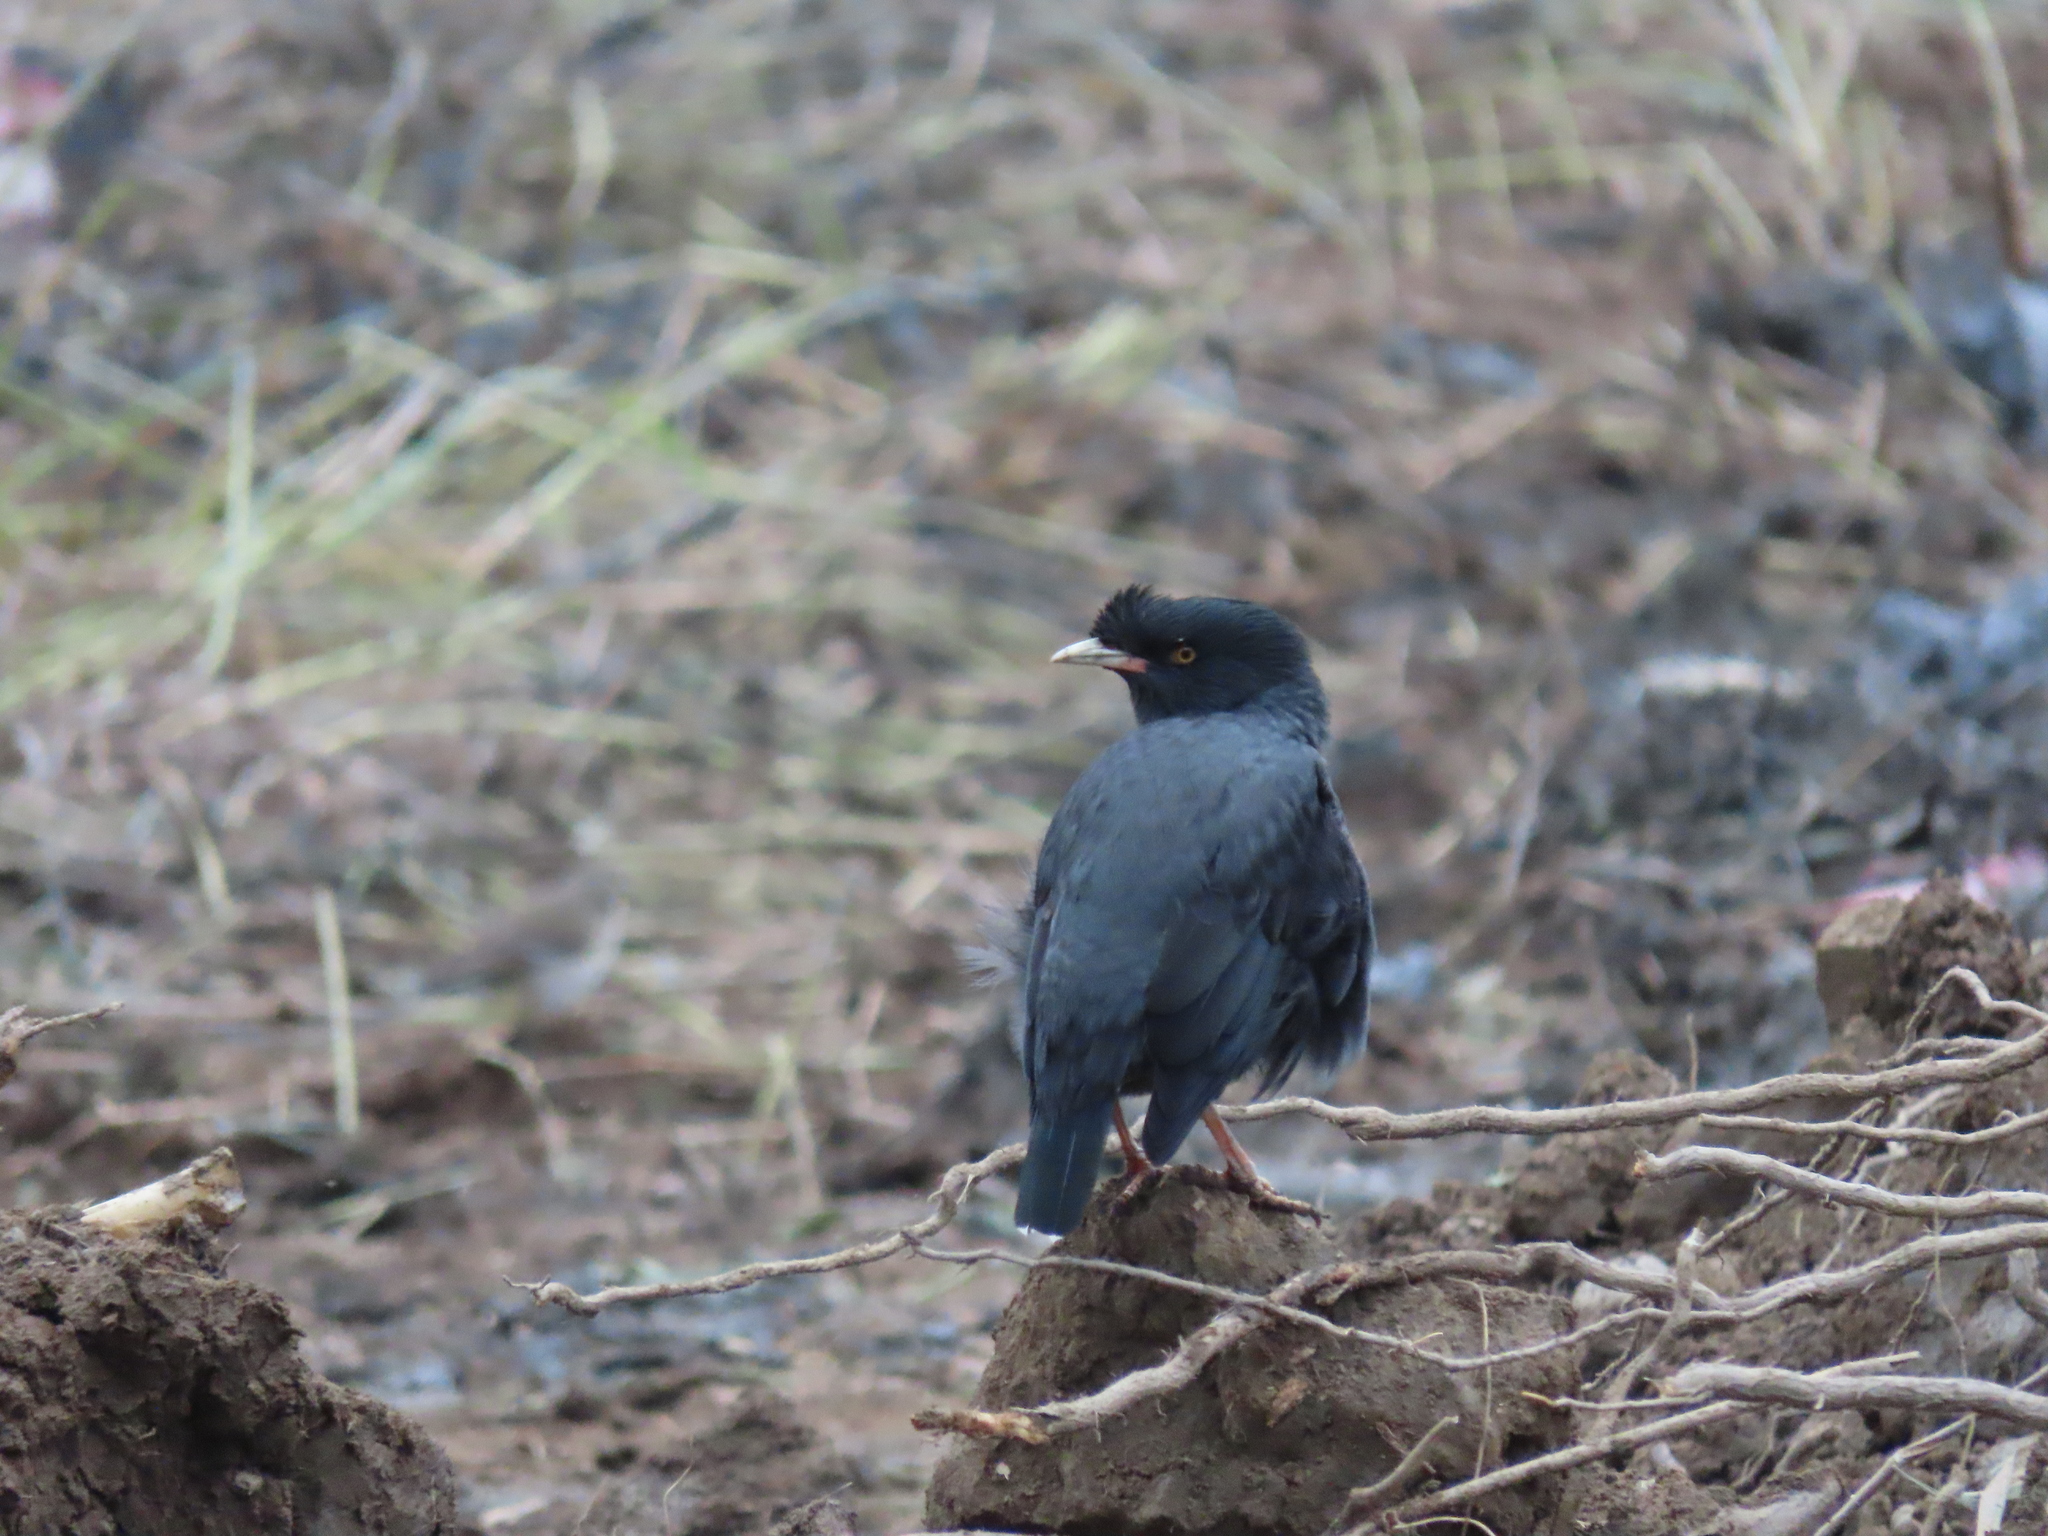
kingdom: Animalia
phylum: Chordata
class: Aves
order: Passeriformes
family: Sturnidae
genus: Acridotheres
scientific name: Acridotheres cristatellus
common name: Crested myna
